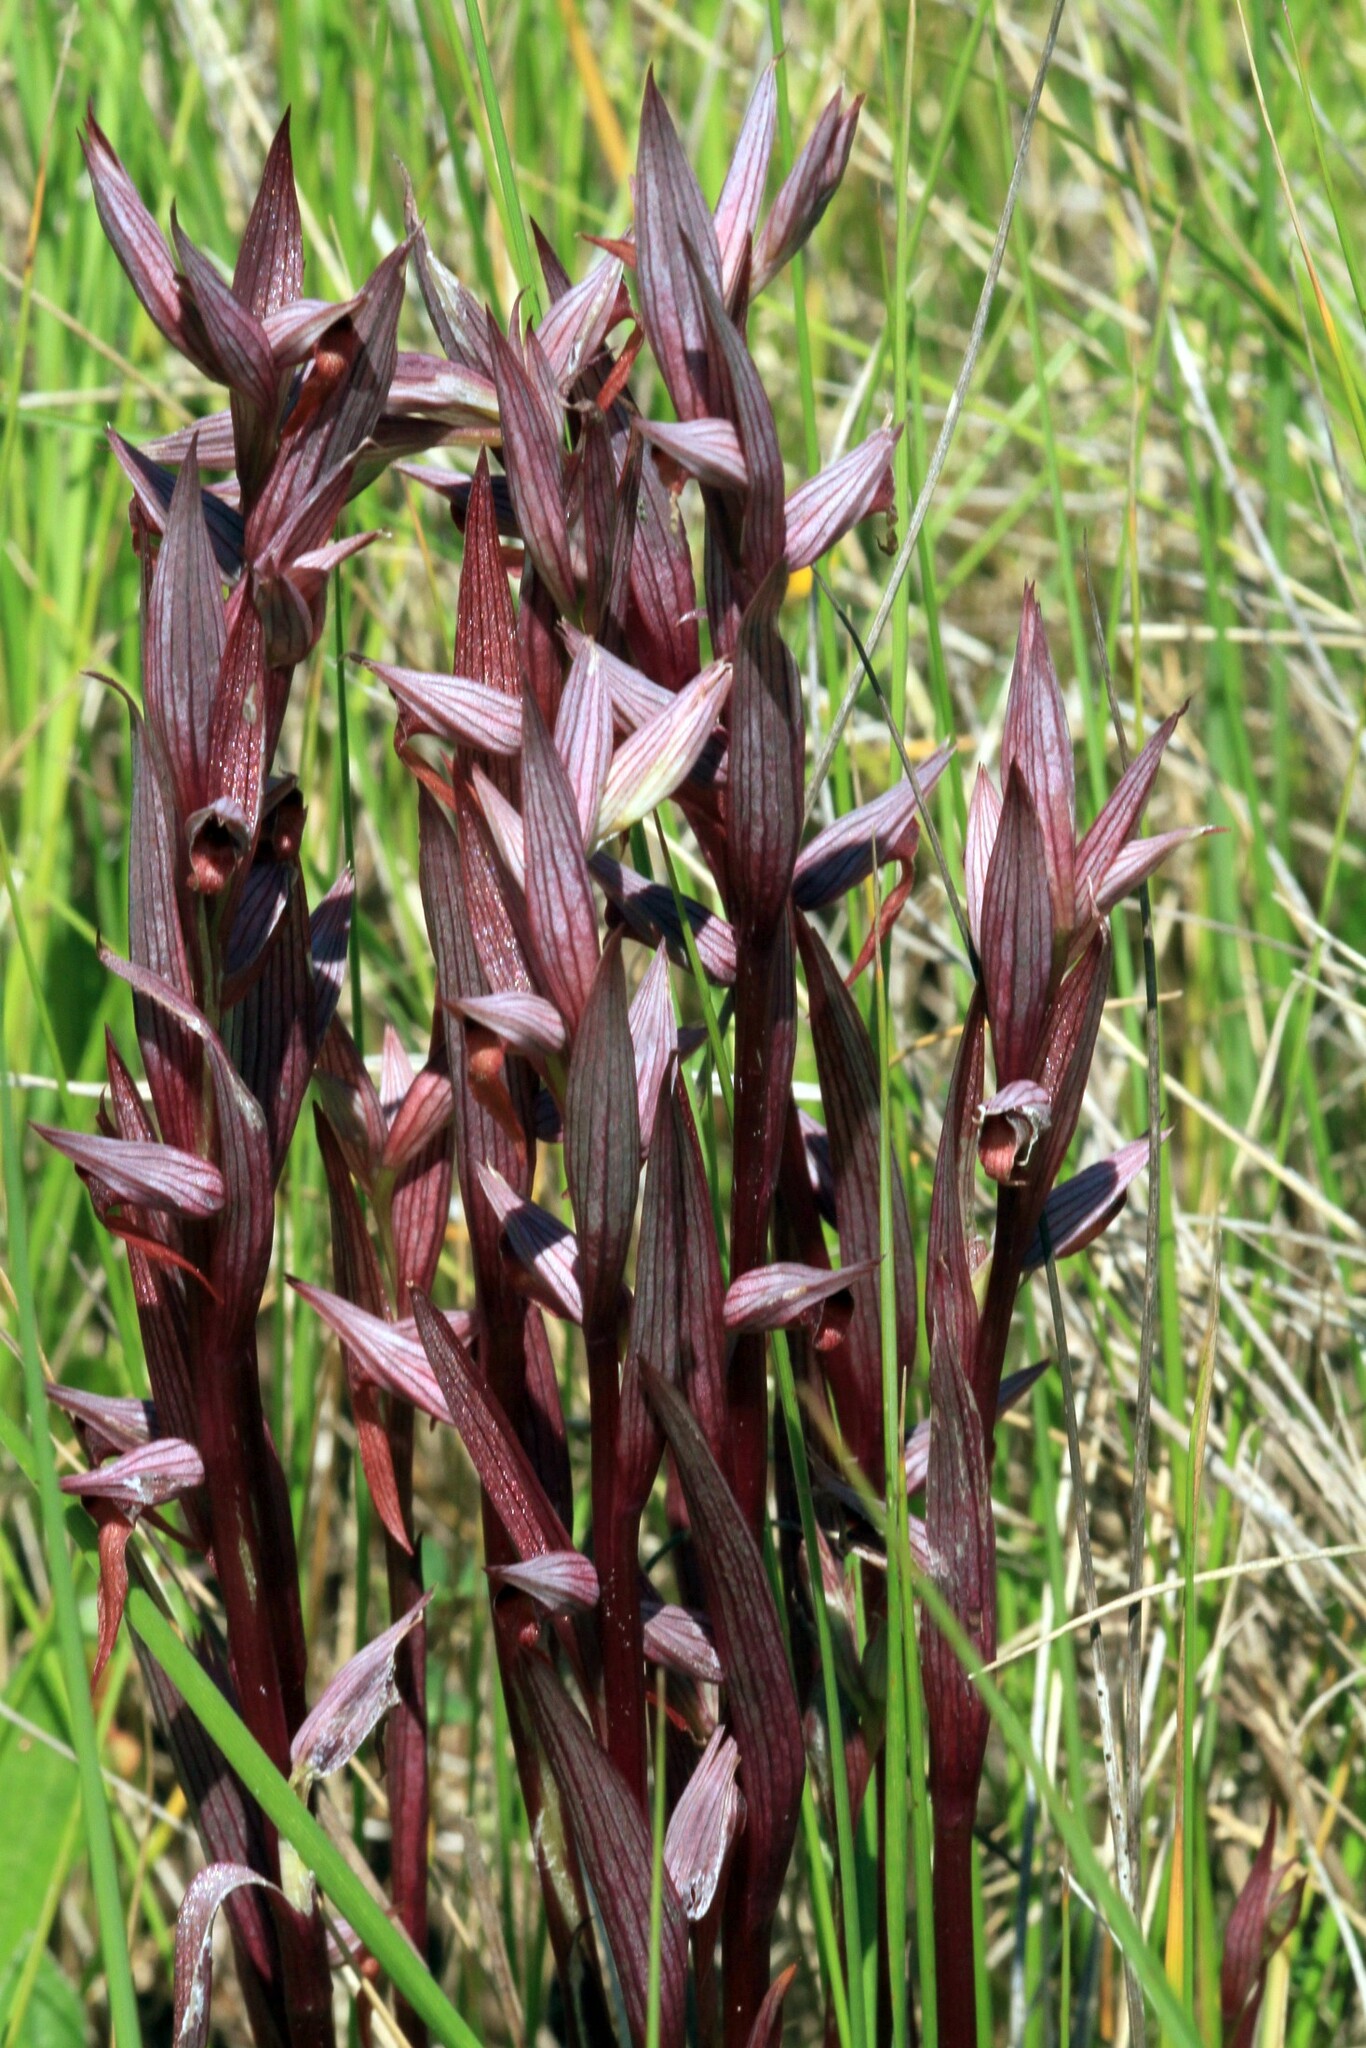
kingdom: Plantae
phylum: Tracheophyta
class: Liliopsida
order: Asparagales
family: Orchidaceae
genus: Serapias
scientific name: Serapias vomeracea
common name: Long-lipped tongue-orchid
